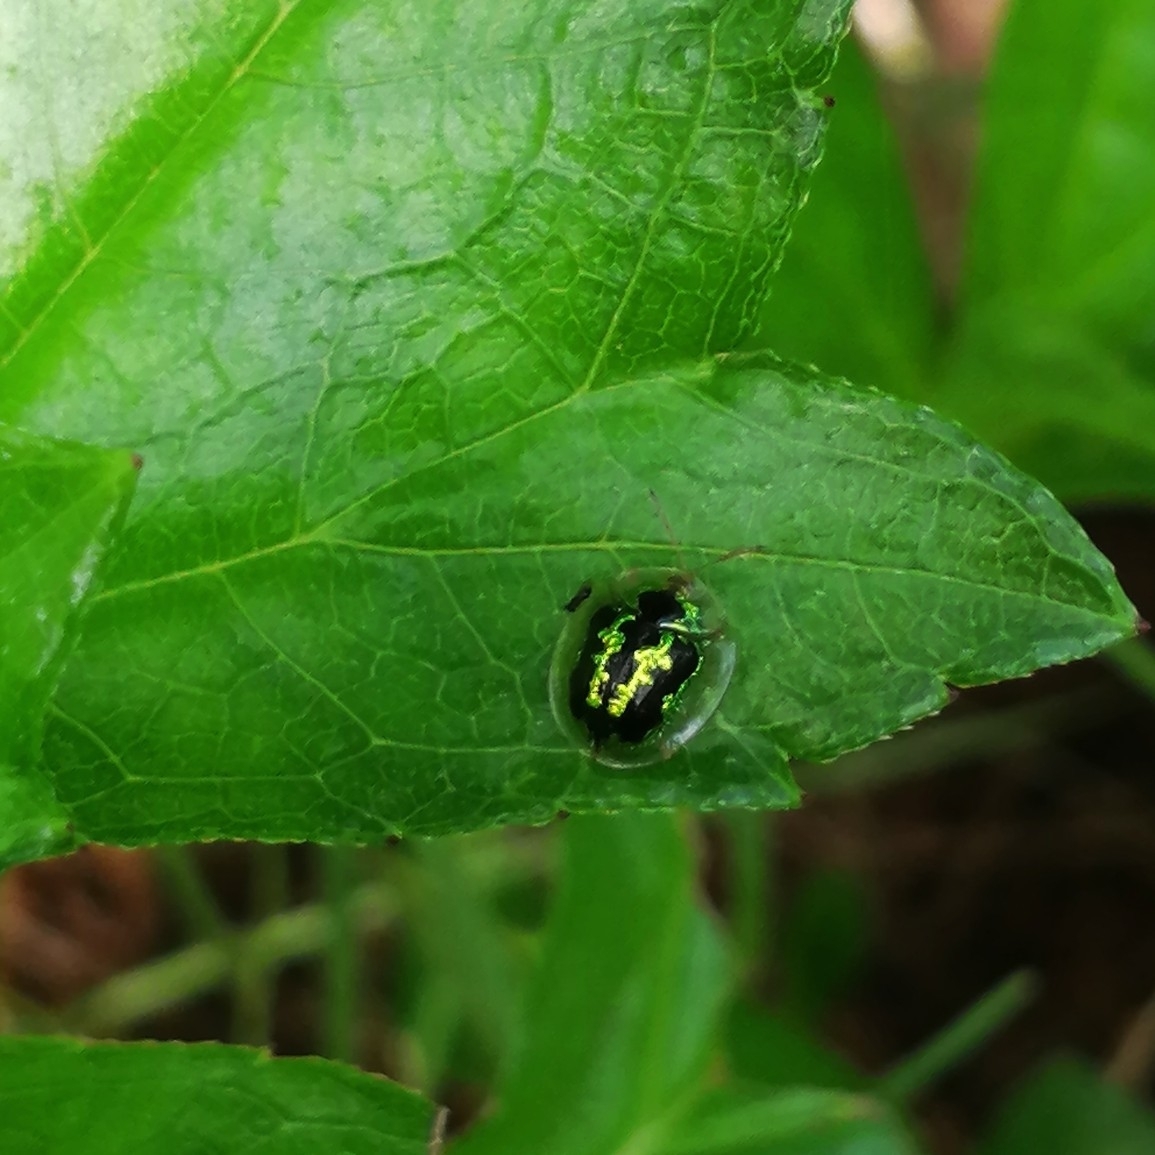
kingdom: Animalia
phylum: Arthropoda
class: Insecta
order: Coleoptera
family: Chrysomelidae
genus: Cassida
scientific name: Cassida circumdata
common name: Tortoise beetle
